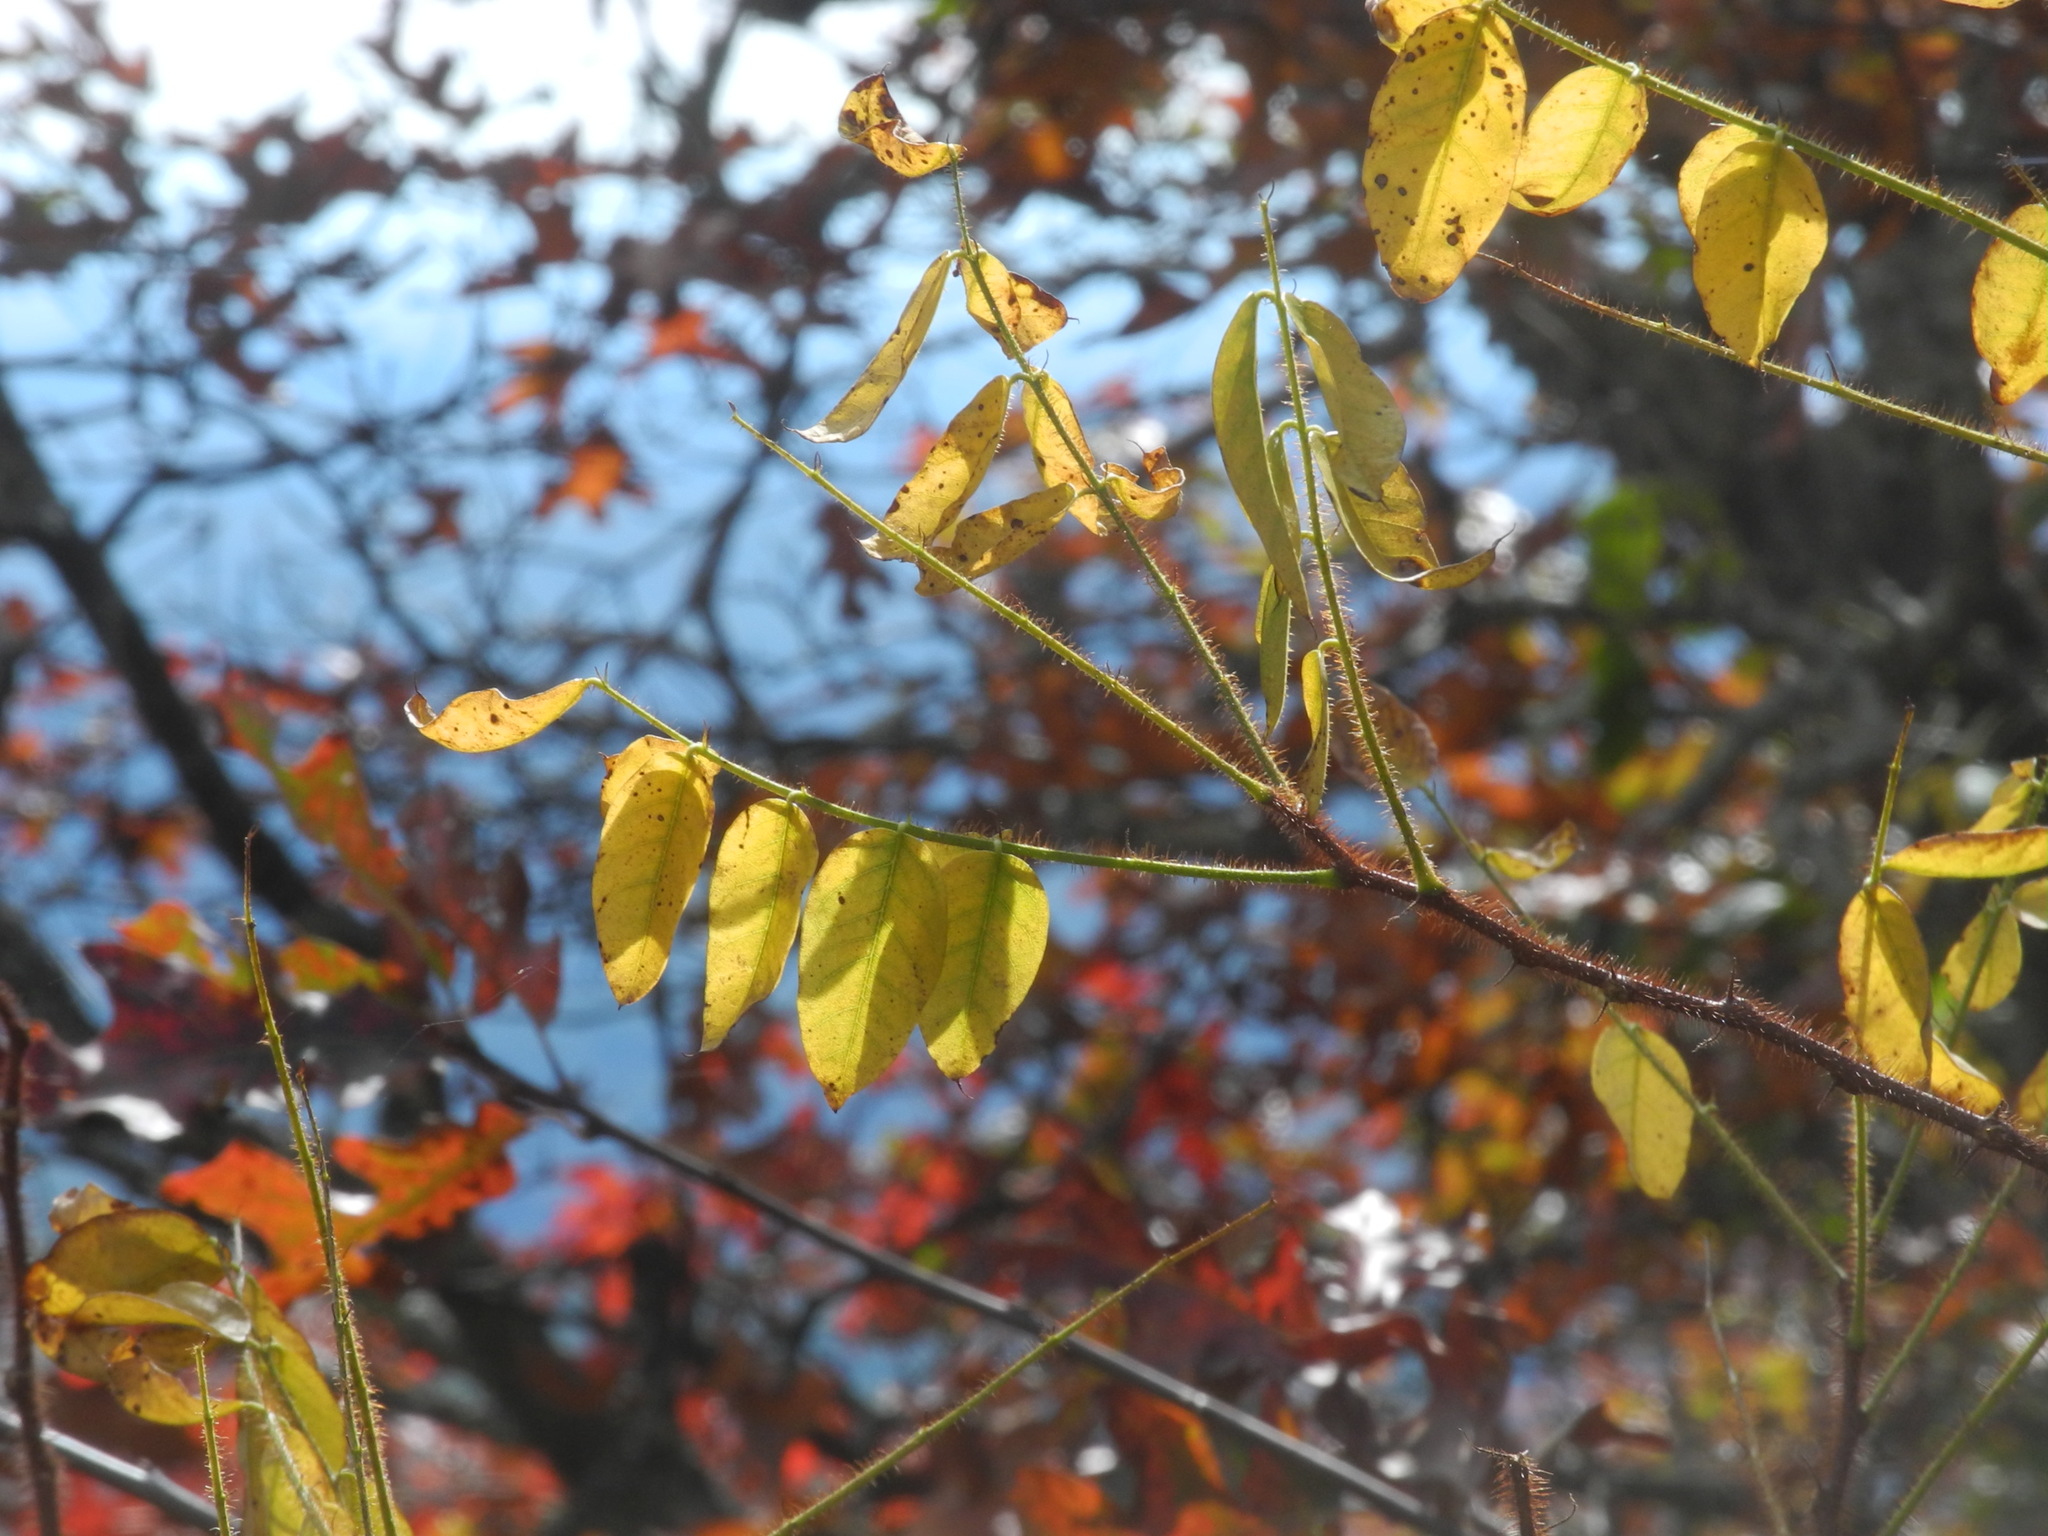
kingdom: Plantae
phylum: Tracheophyta
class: Magnoliopsida
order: Fabales
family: Fabaceae
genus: Robinia
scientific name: Robinia hispida
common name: Bristly locust
